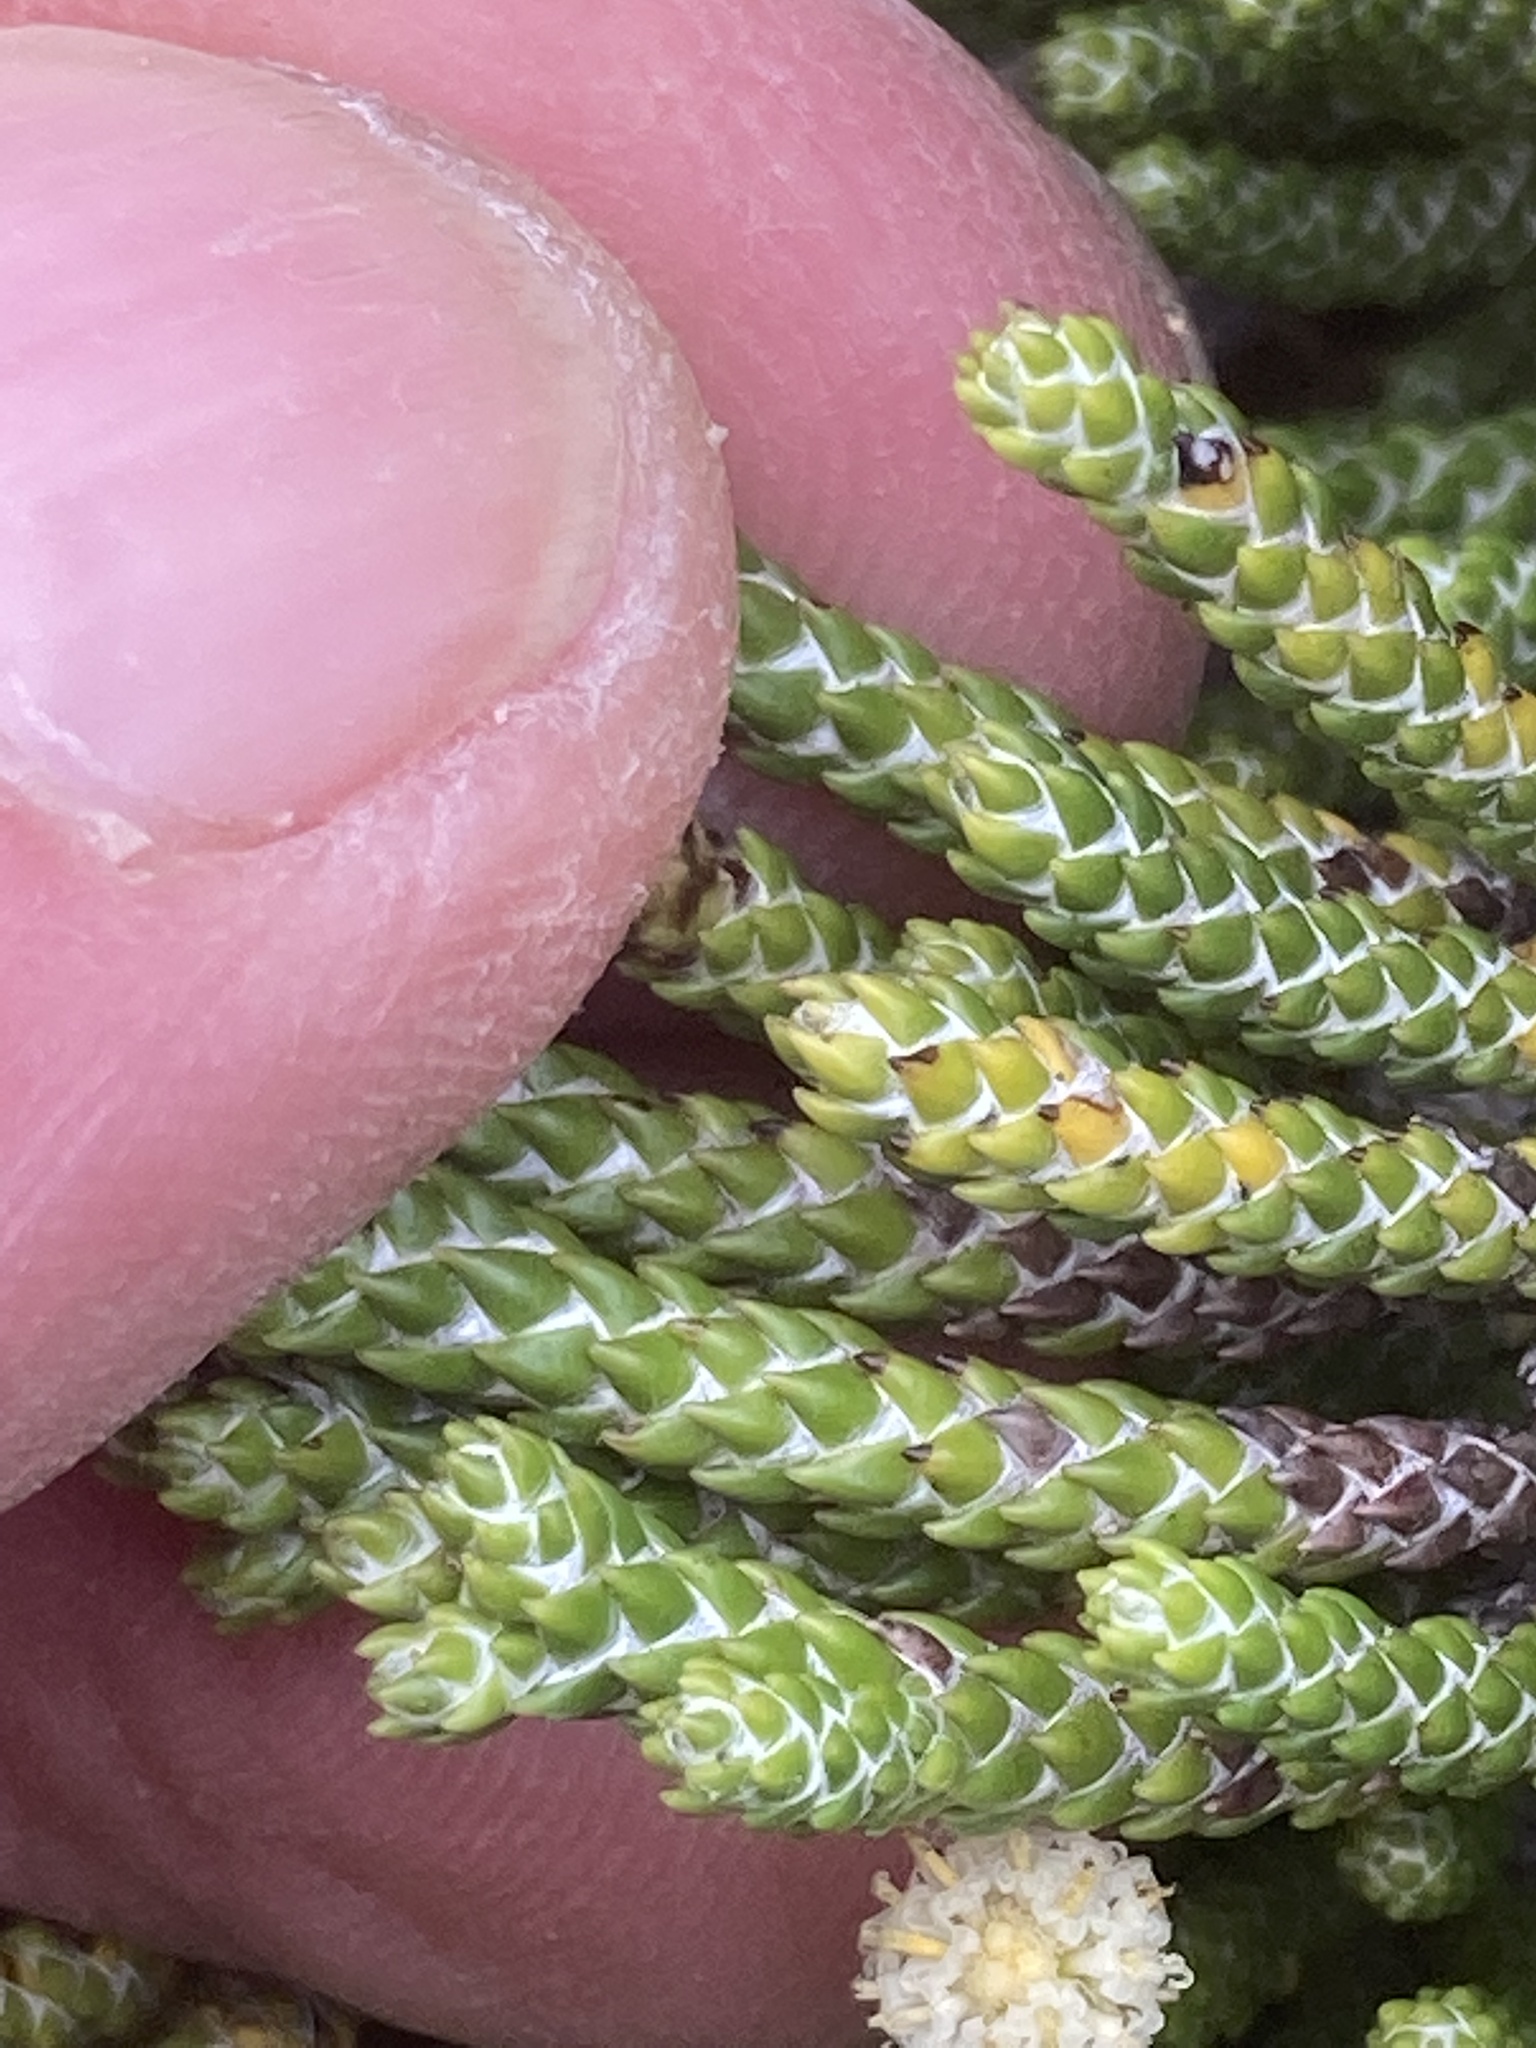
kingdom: Plantae
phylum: Tracheophyta
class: Magnoliopsida
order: Asterales
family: Asteraceae
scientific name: Asteraceae
